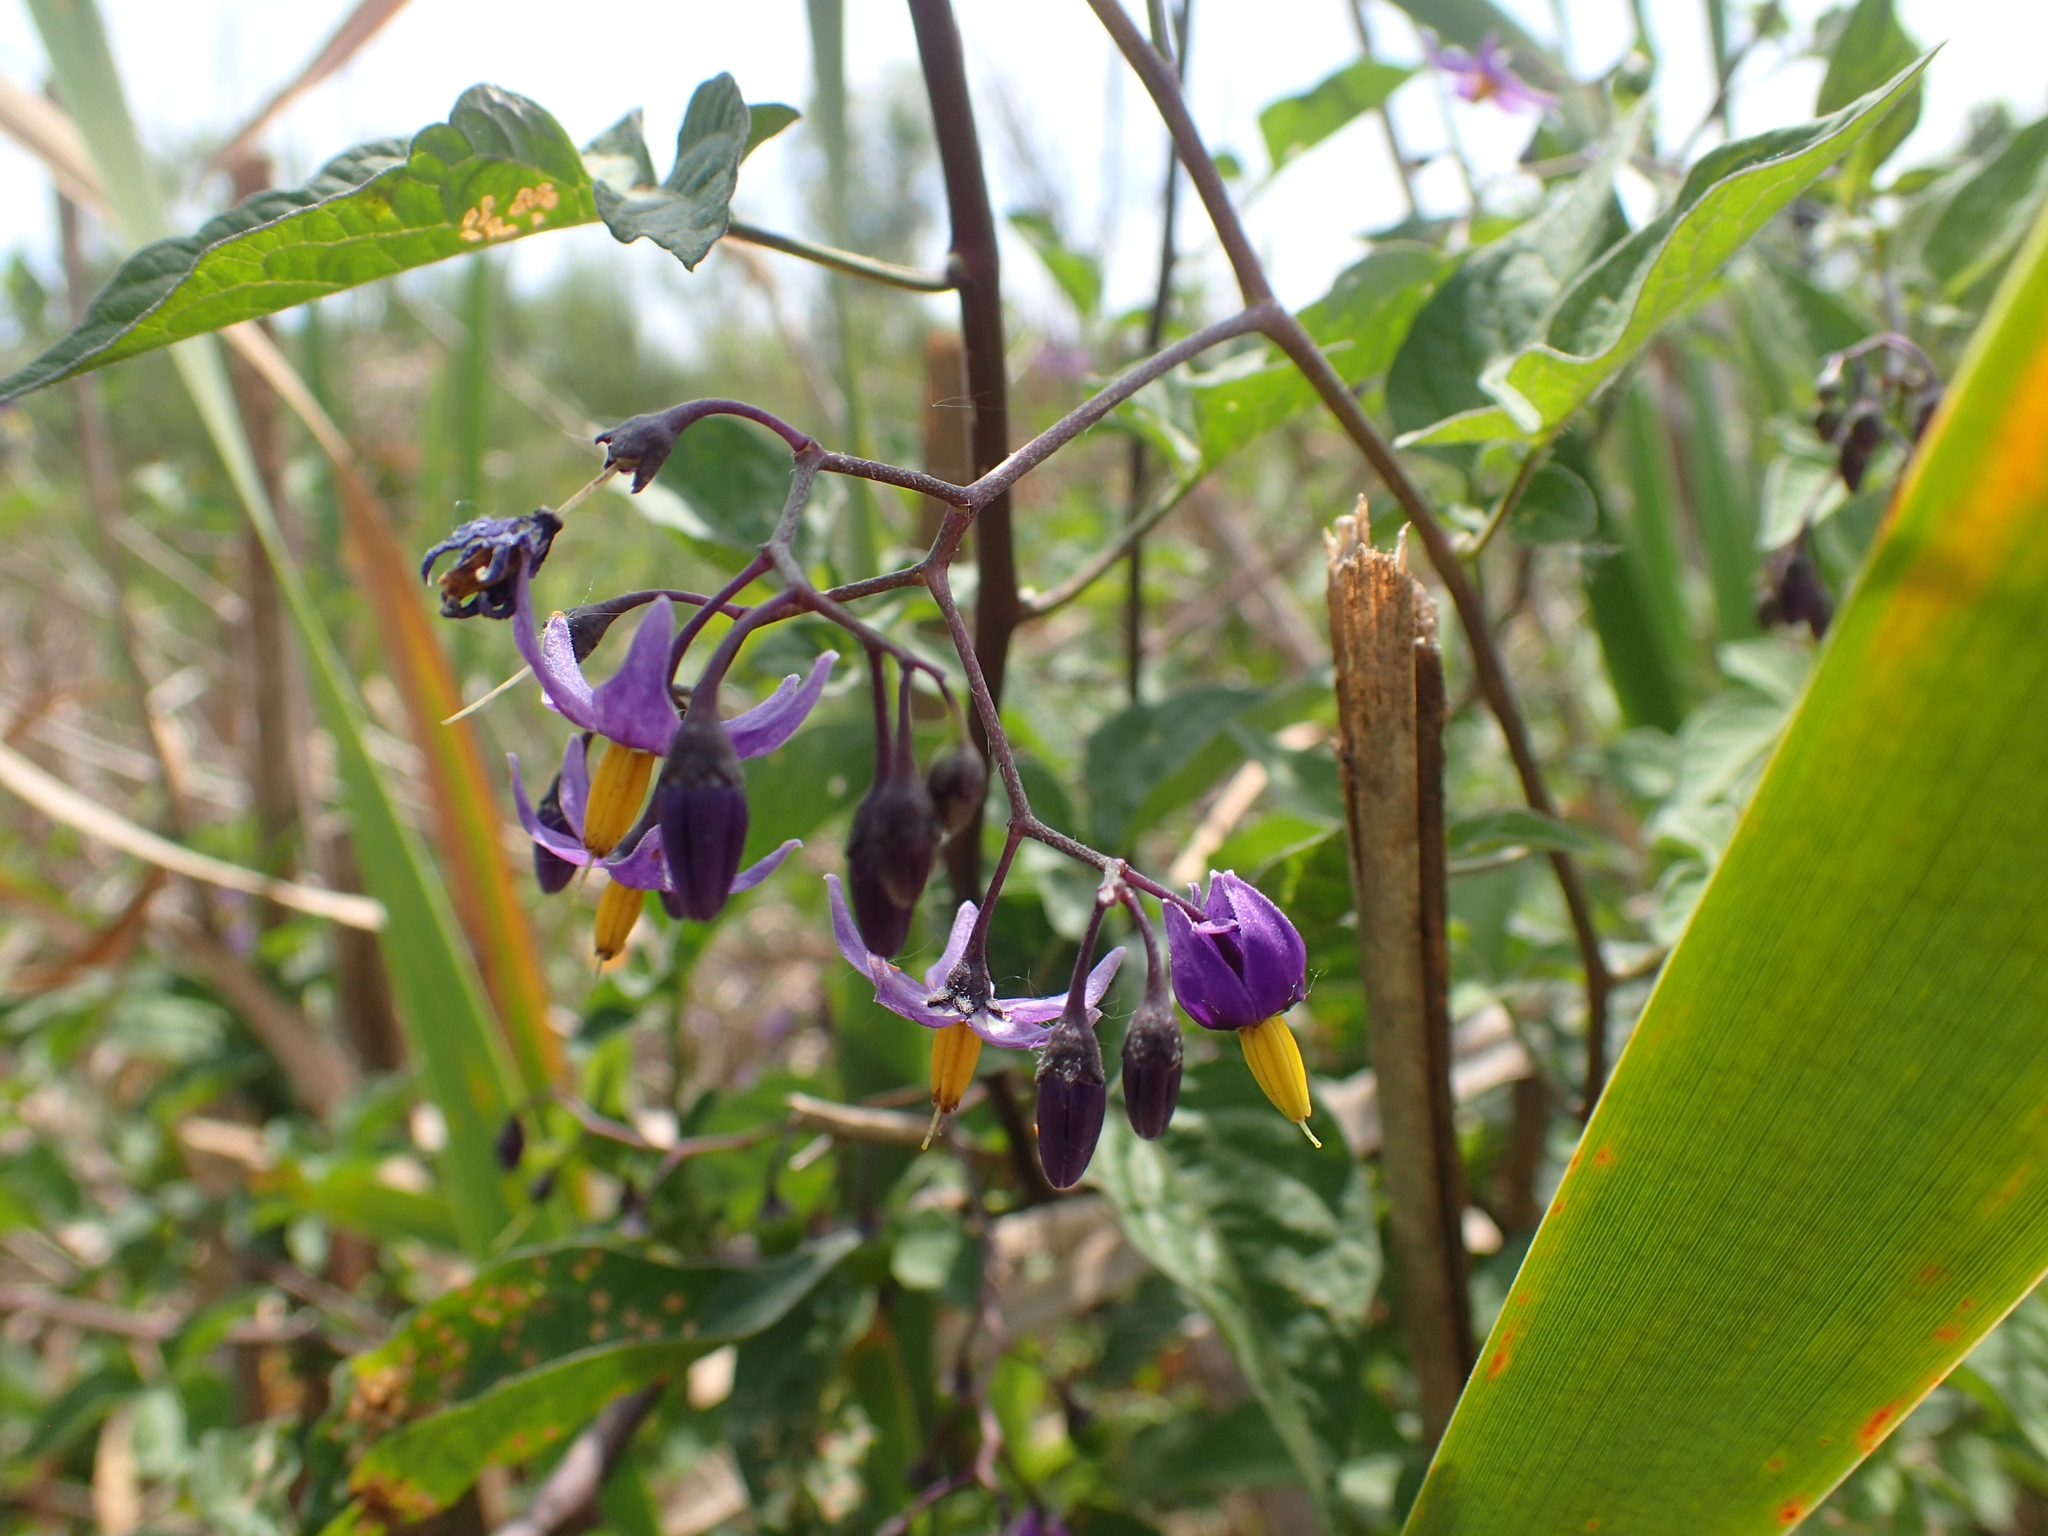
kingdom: Plantae
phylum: Tracheophyta
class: Magnoliopsida
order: Solanales
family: Solanaceae
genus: Solanum
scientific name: Solanum dulcamara
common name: Climbing nightshade
